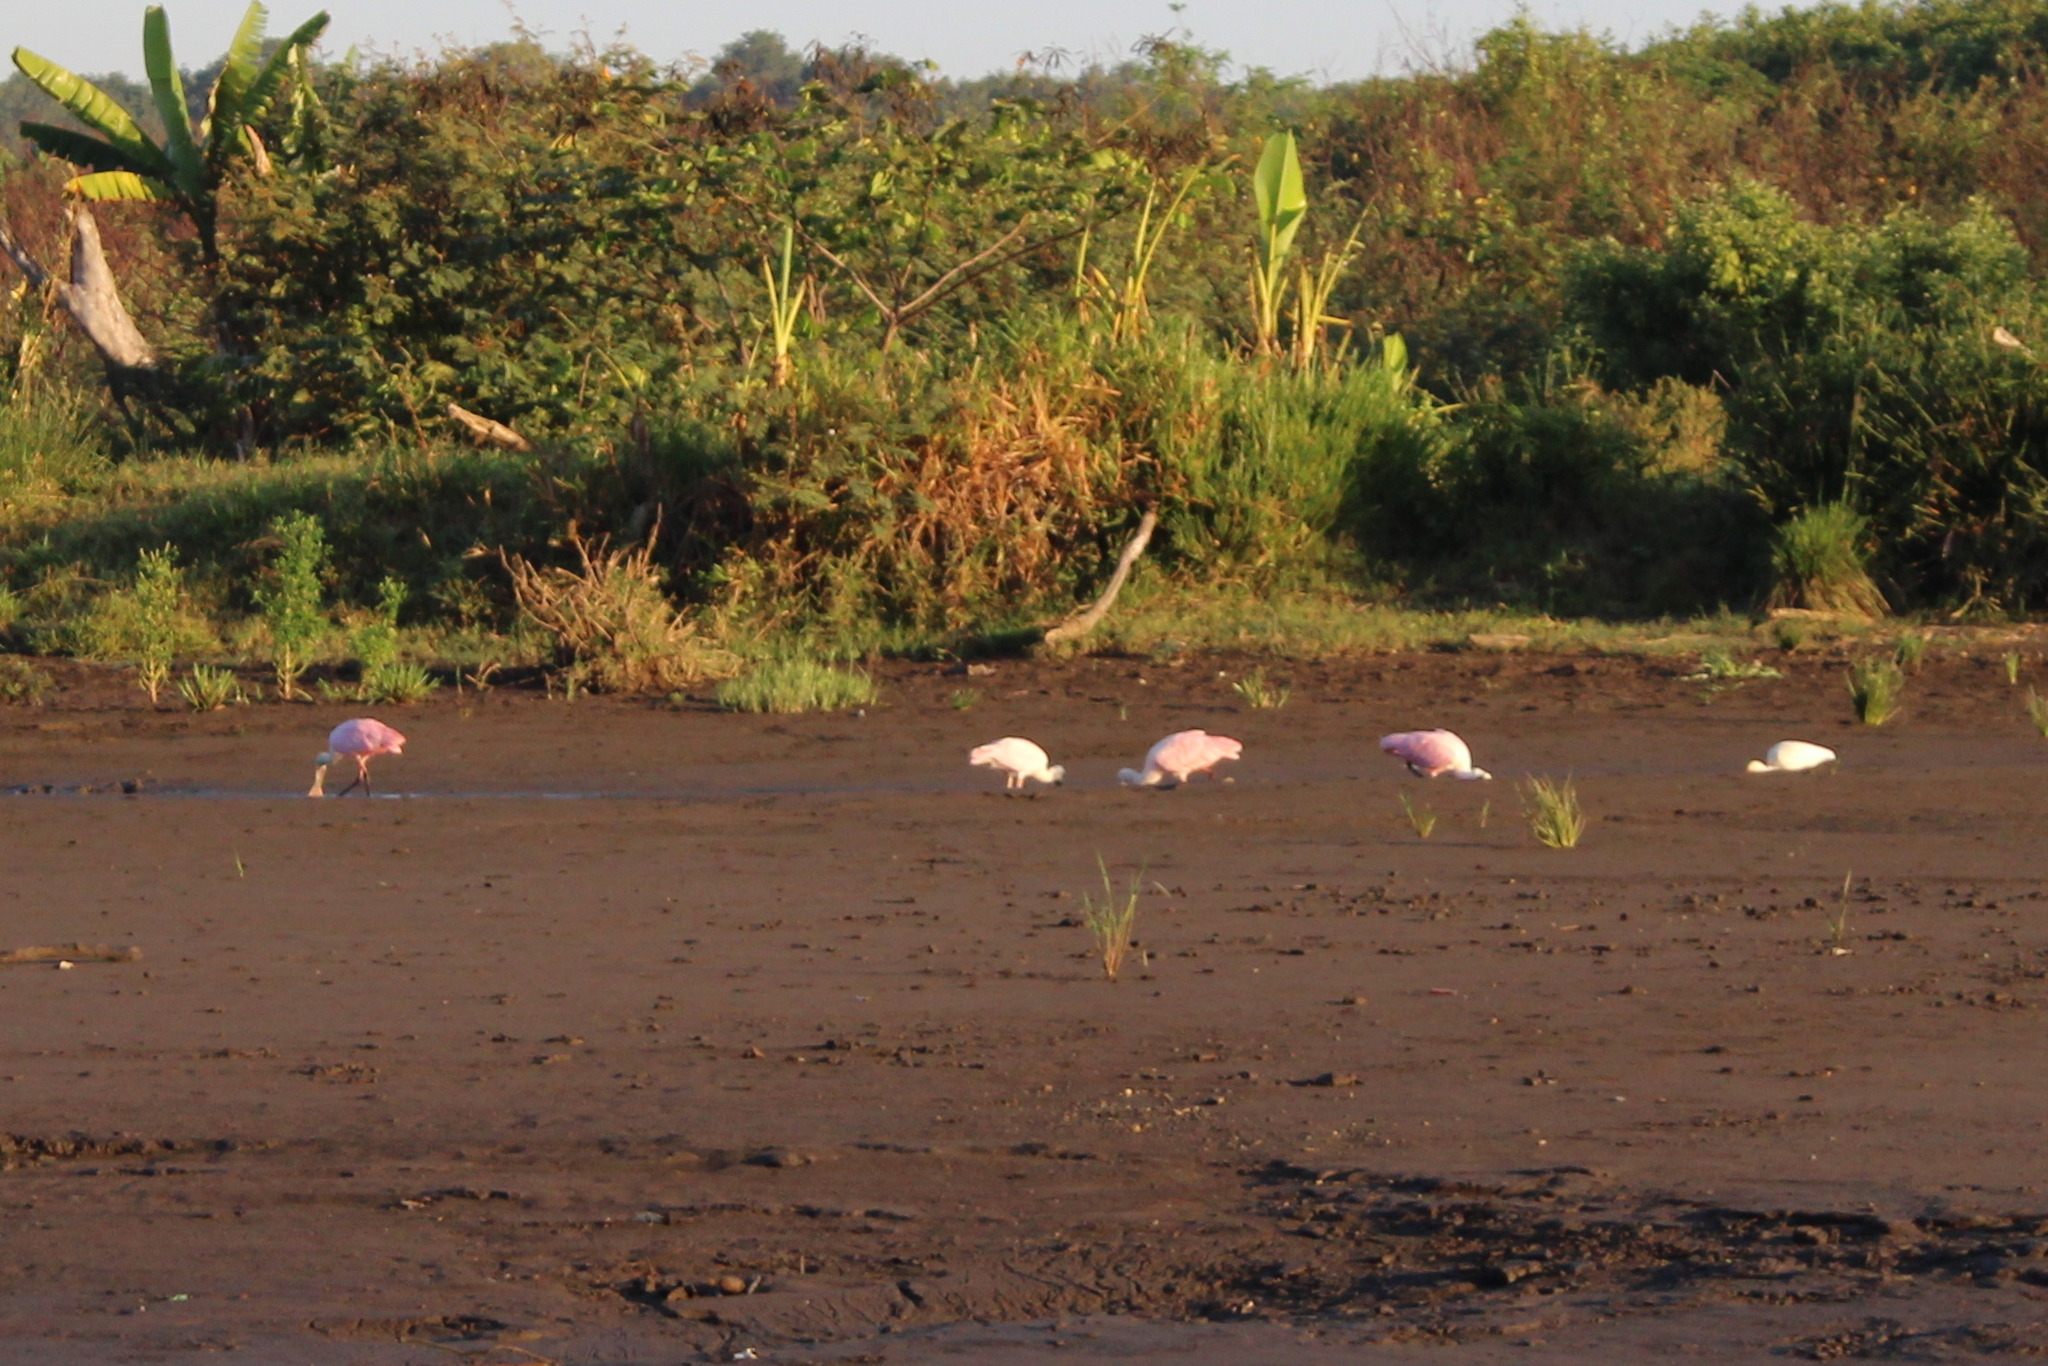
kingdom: Animalia
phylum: Chordata
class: Aves
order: Pelecaniformes
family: Threskiornithidae
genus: Platalea
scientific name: Platalea ajaja
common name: Roseate spoonbill
